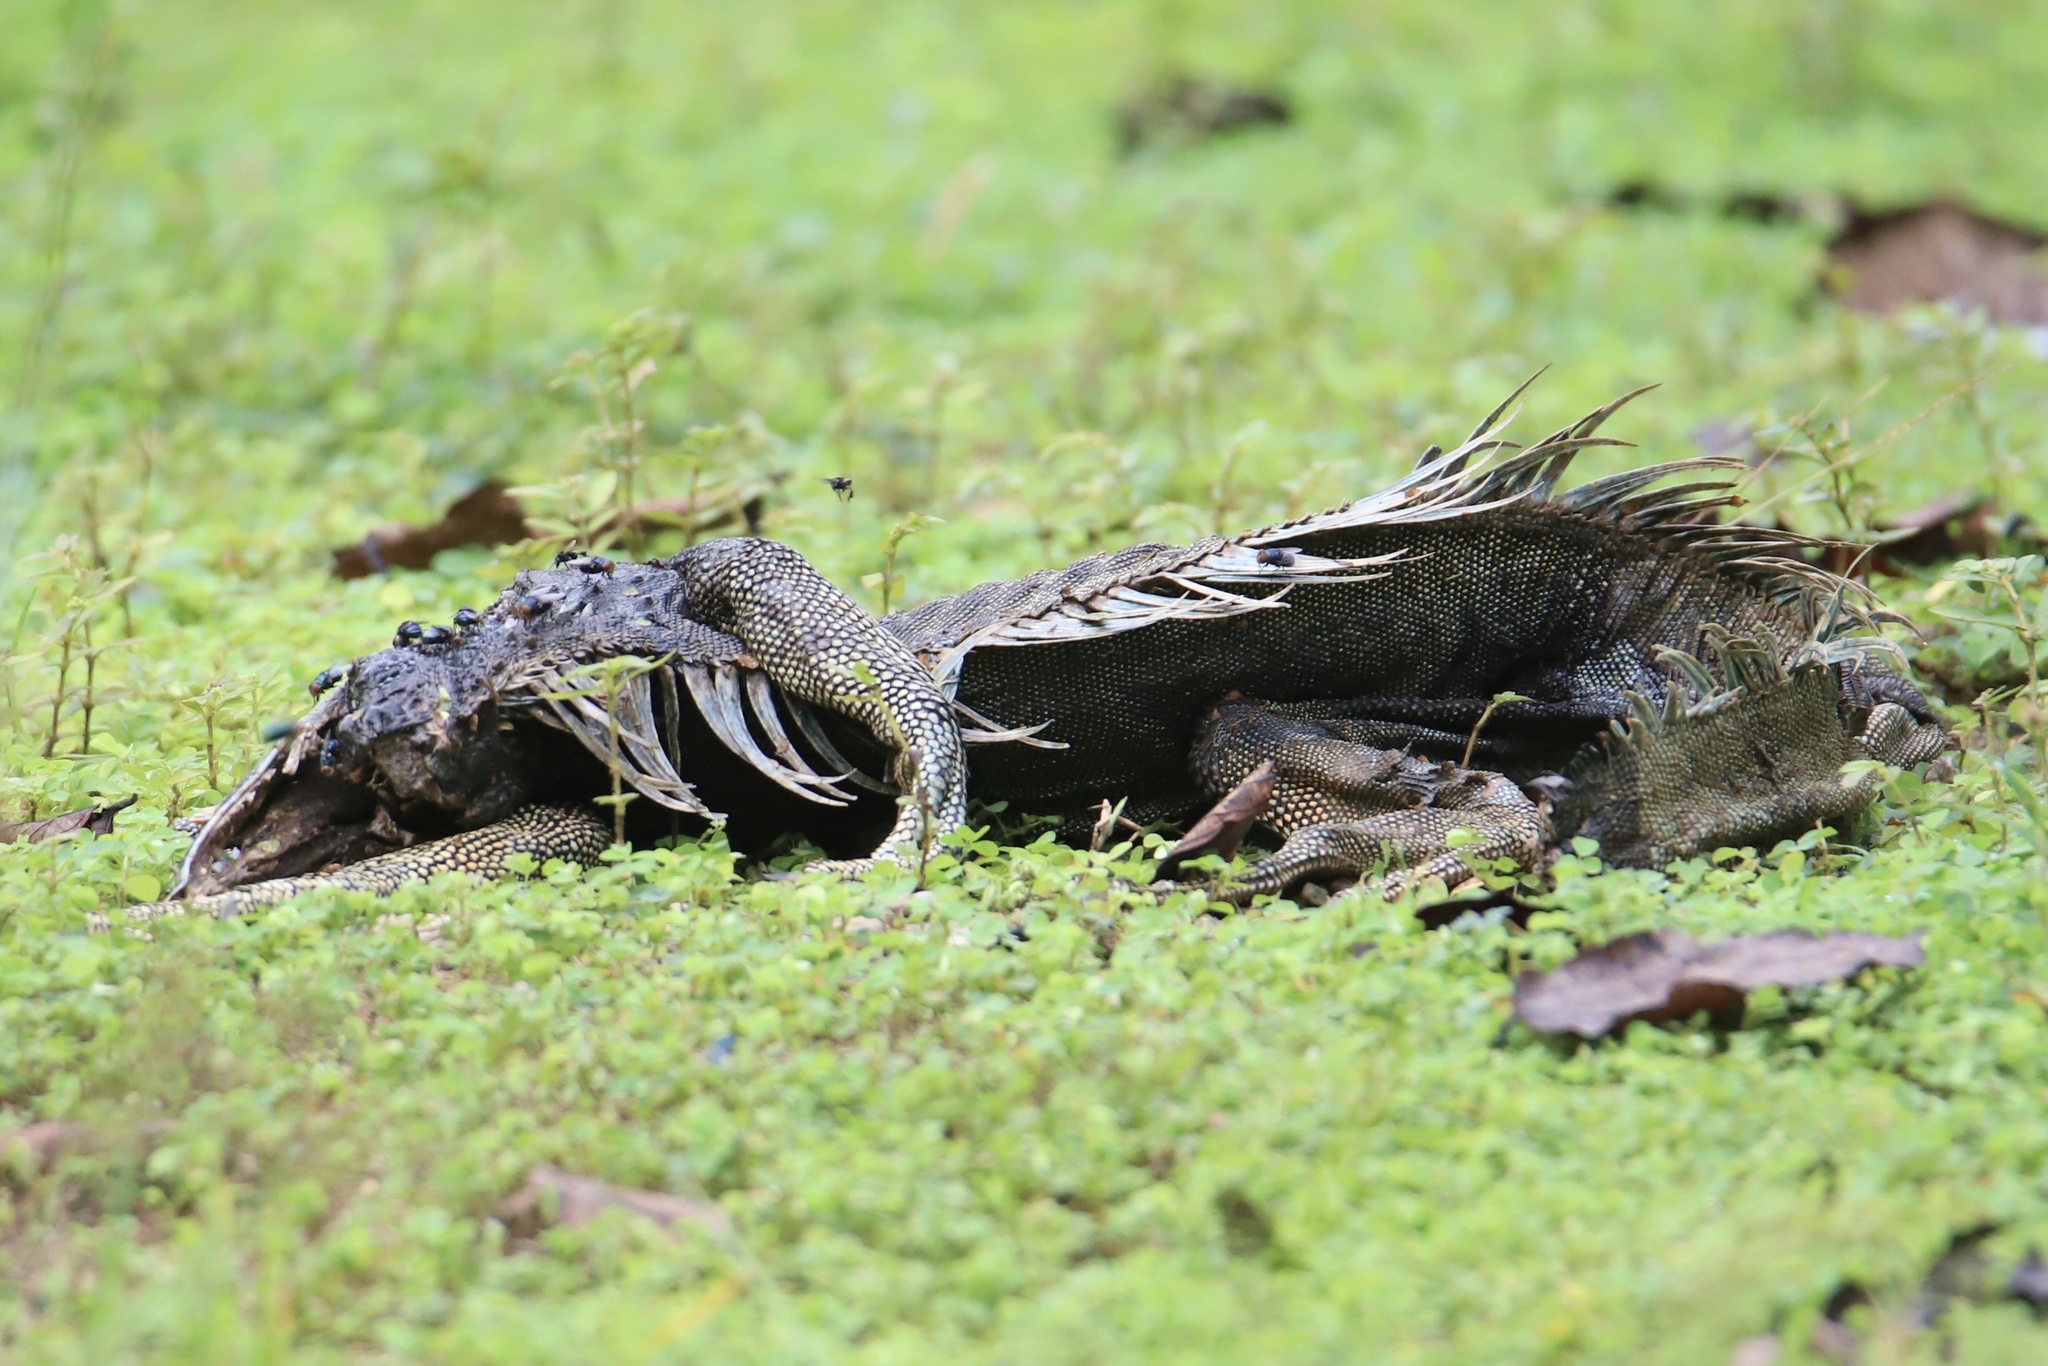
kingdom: Animalia
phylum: Chordata
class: Squamata
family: Iguanidae
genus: Iguana
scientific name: Iguana iguana
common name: Green iguana
